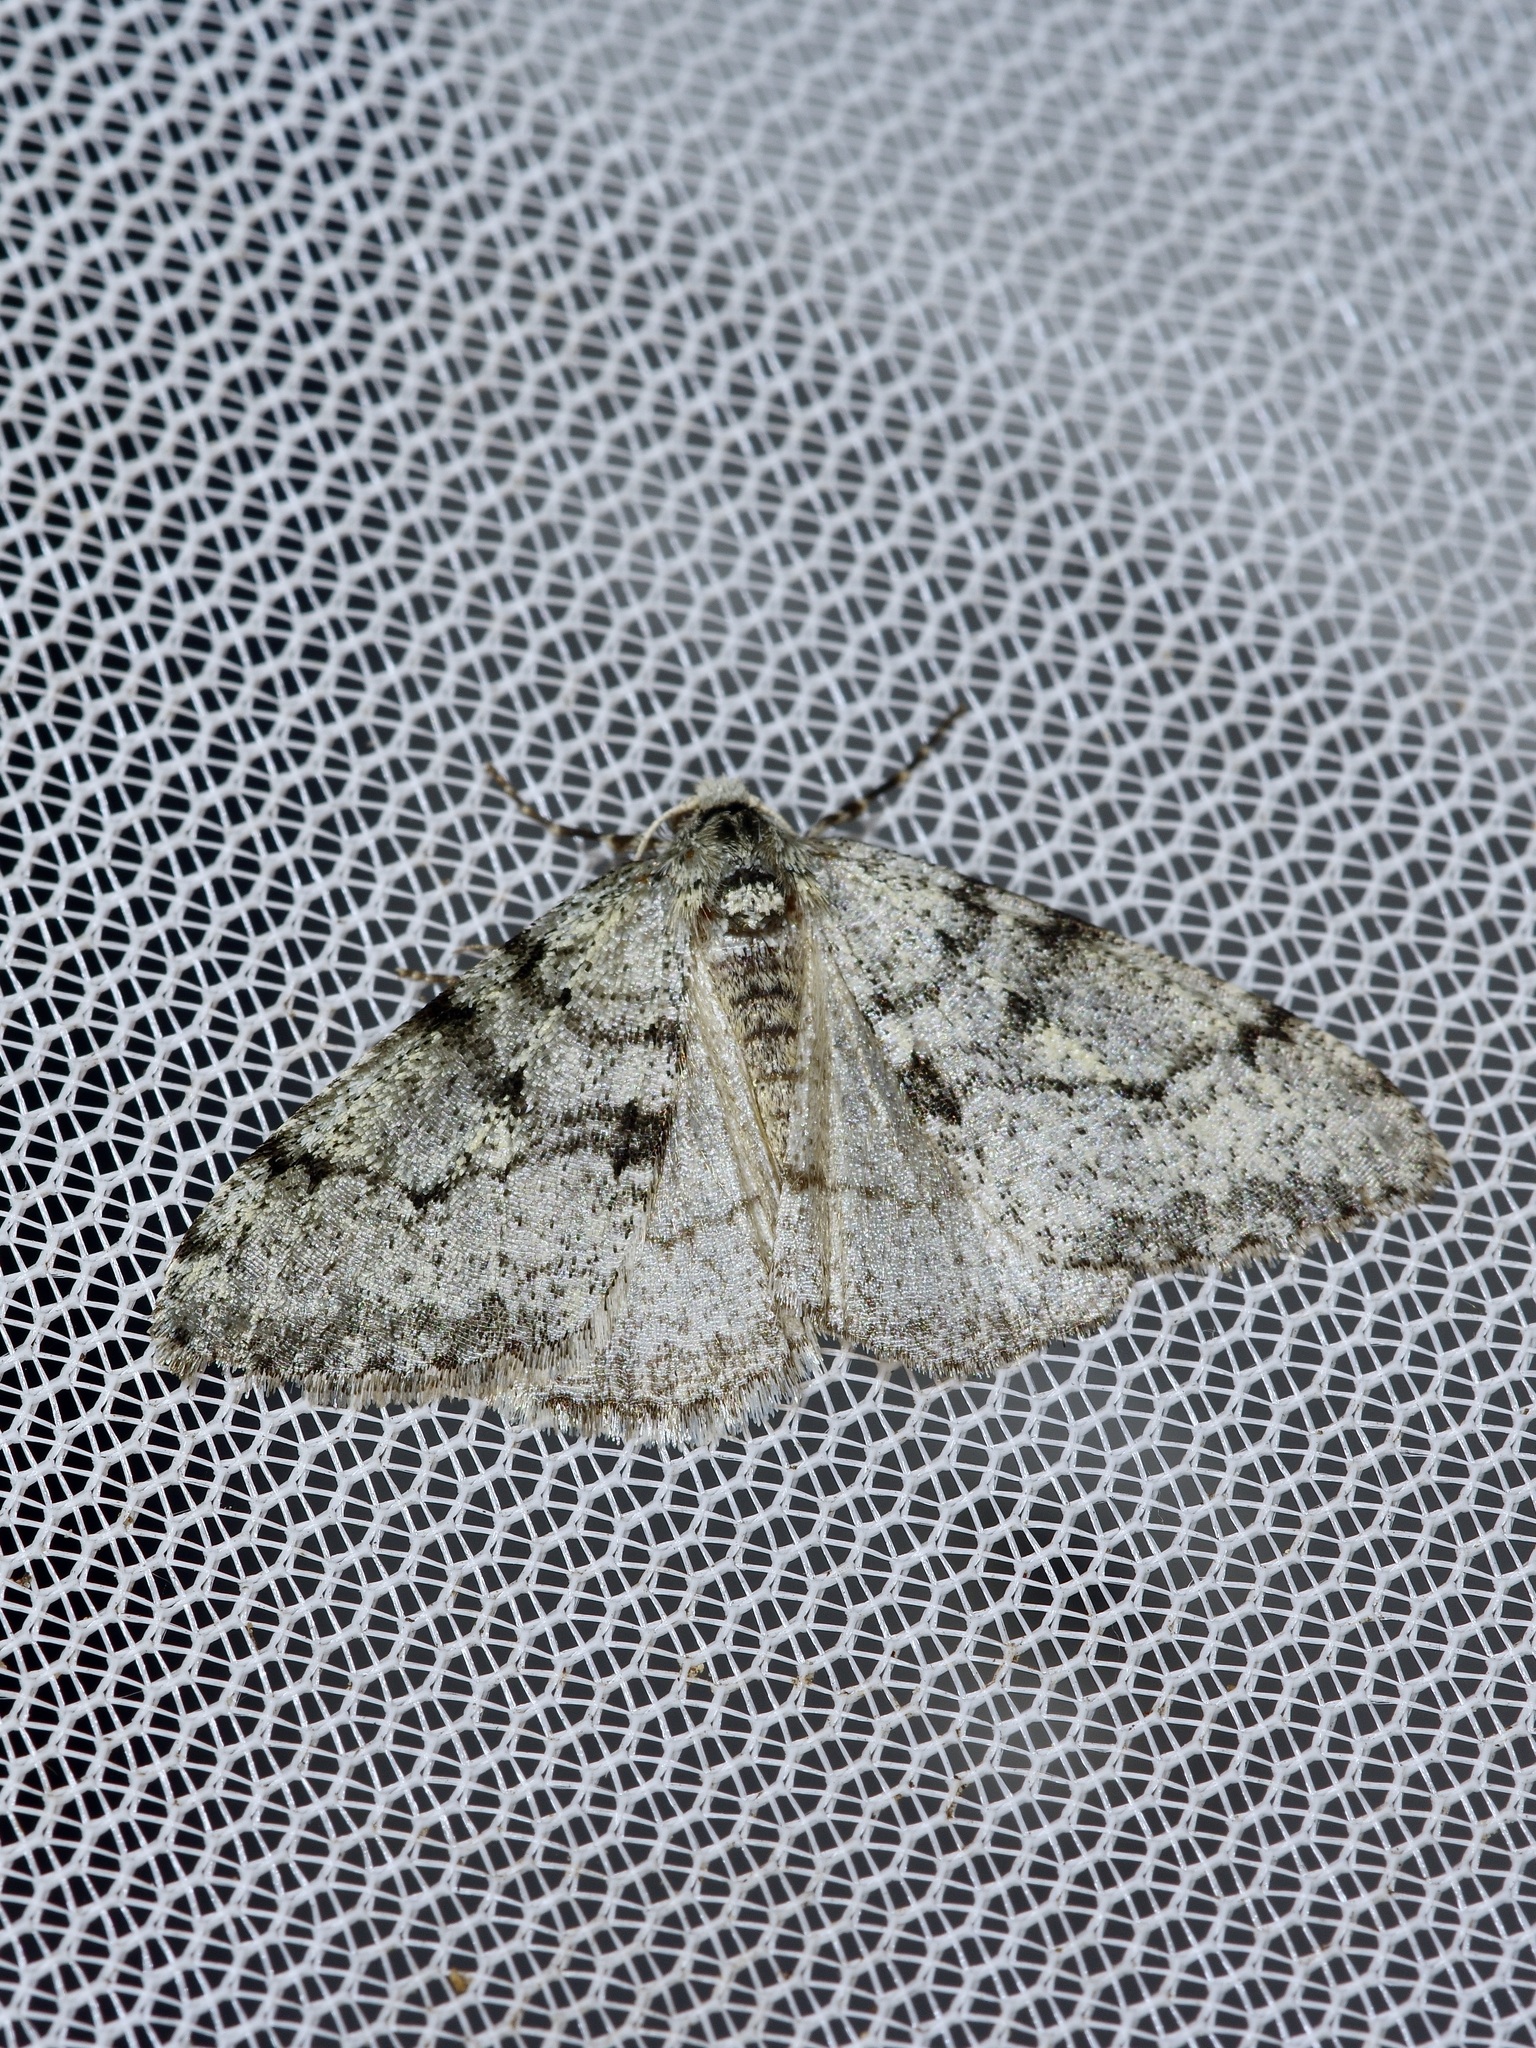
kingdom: Animalia
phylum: Arthropoda
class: Insecta
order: Lepidoptera
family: Geometridae
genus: Phigalia
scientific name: Phigalia strigataria
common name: Small phigalia
